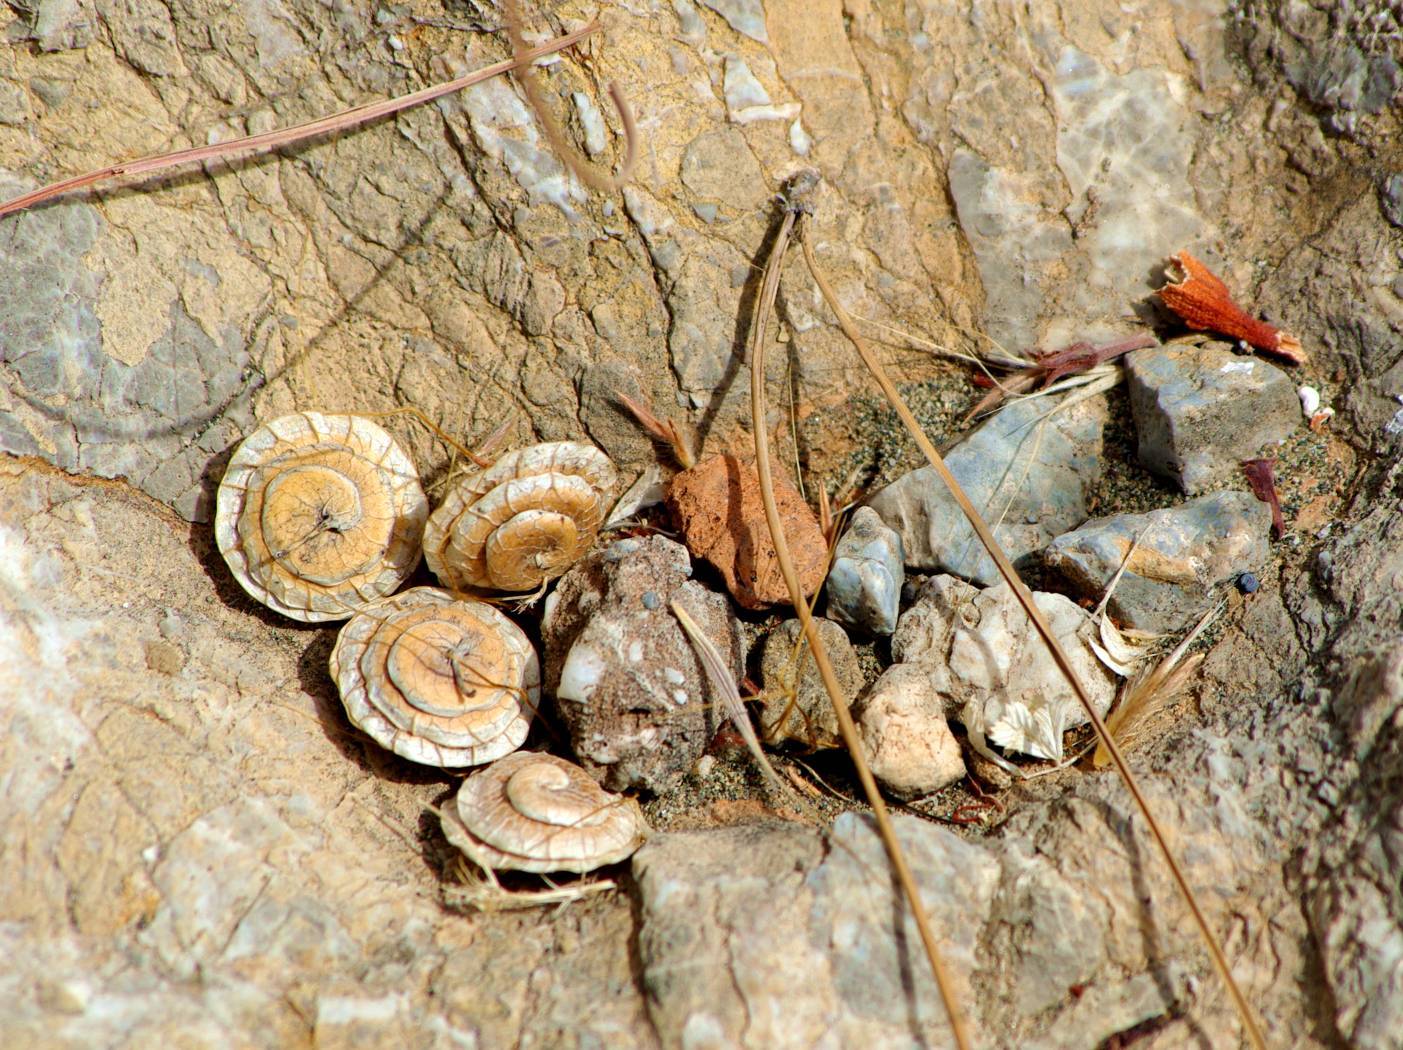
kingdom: Plantae
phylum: Tracheophyta
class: Magnoliopsida
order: Fabales
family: Fabaceae
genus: Medicago
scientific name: Medicago orbicularis
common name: Button medick
